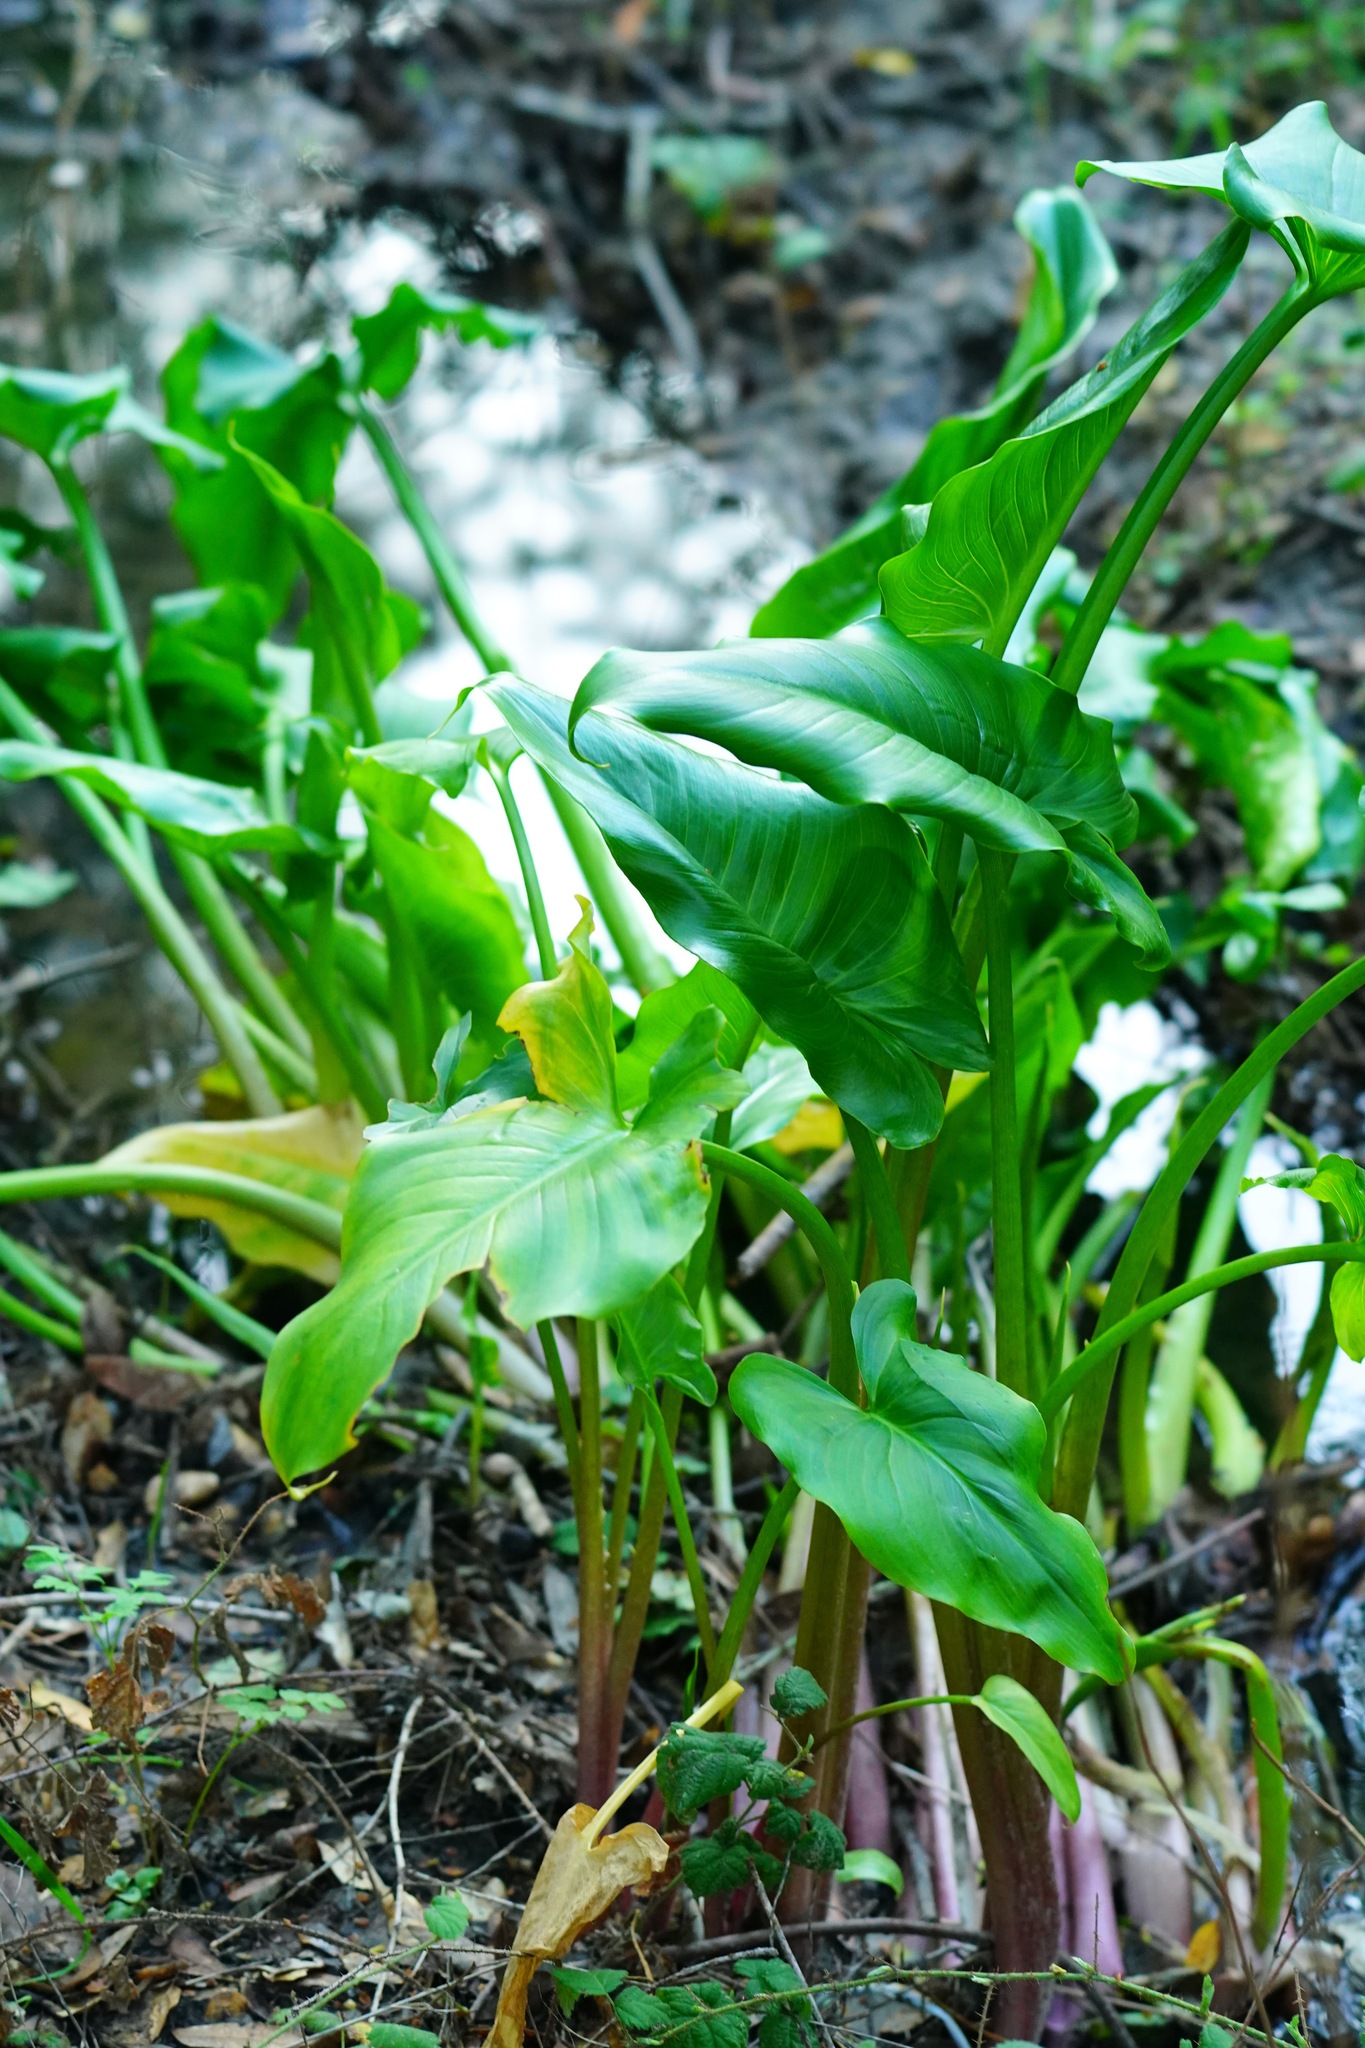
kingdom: Plantae
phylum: Tracheophyta
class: Liliopsida
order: Alismatales
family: Araceae
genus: Zantedeschia
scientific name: Zantedeschia aethiopica
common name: Altar-lily
